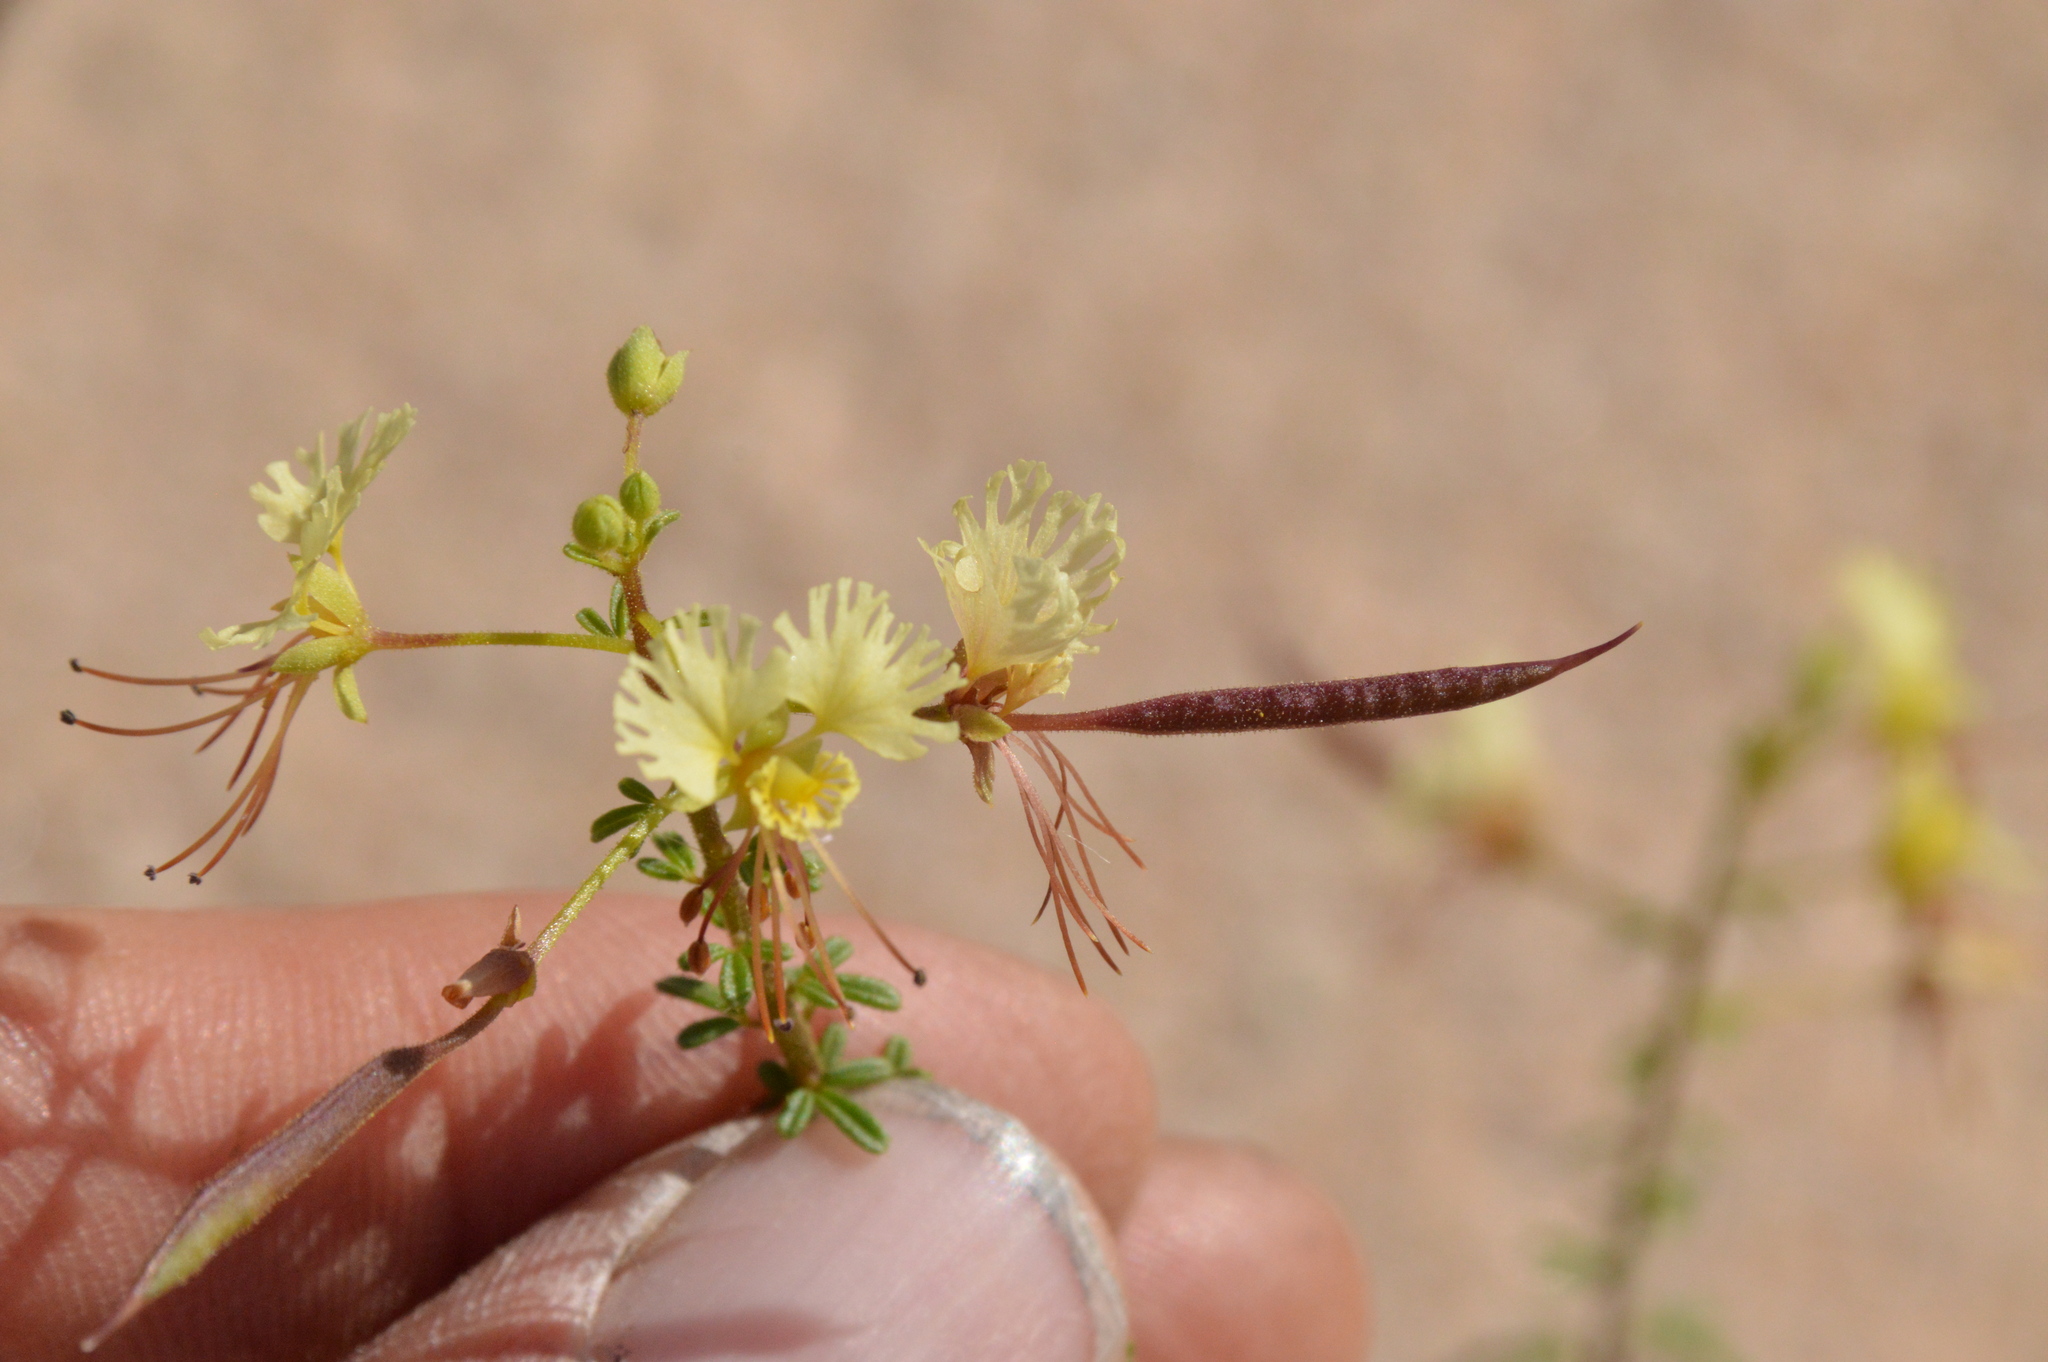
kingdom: Plantae
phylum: Tracheophyta
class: Magnoliopsida
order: Brassicales
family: Cleomaceae
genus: Polanisia
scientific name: Polanisia erosa
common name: Large clammyweed
